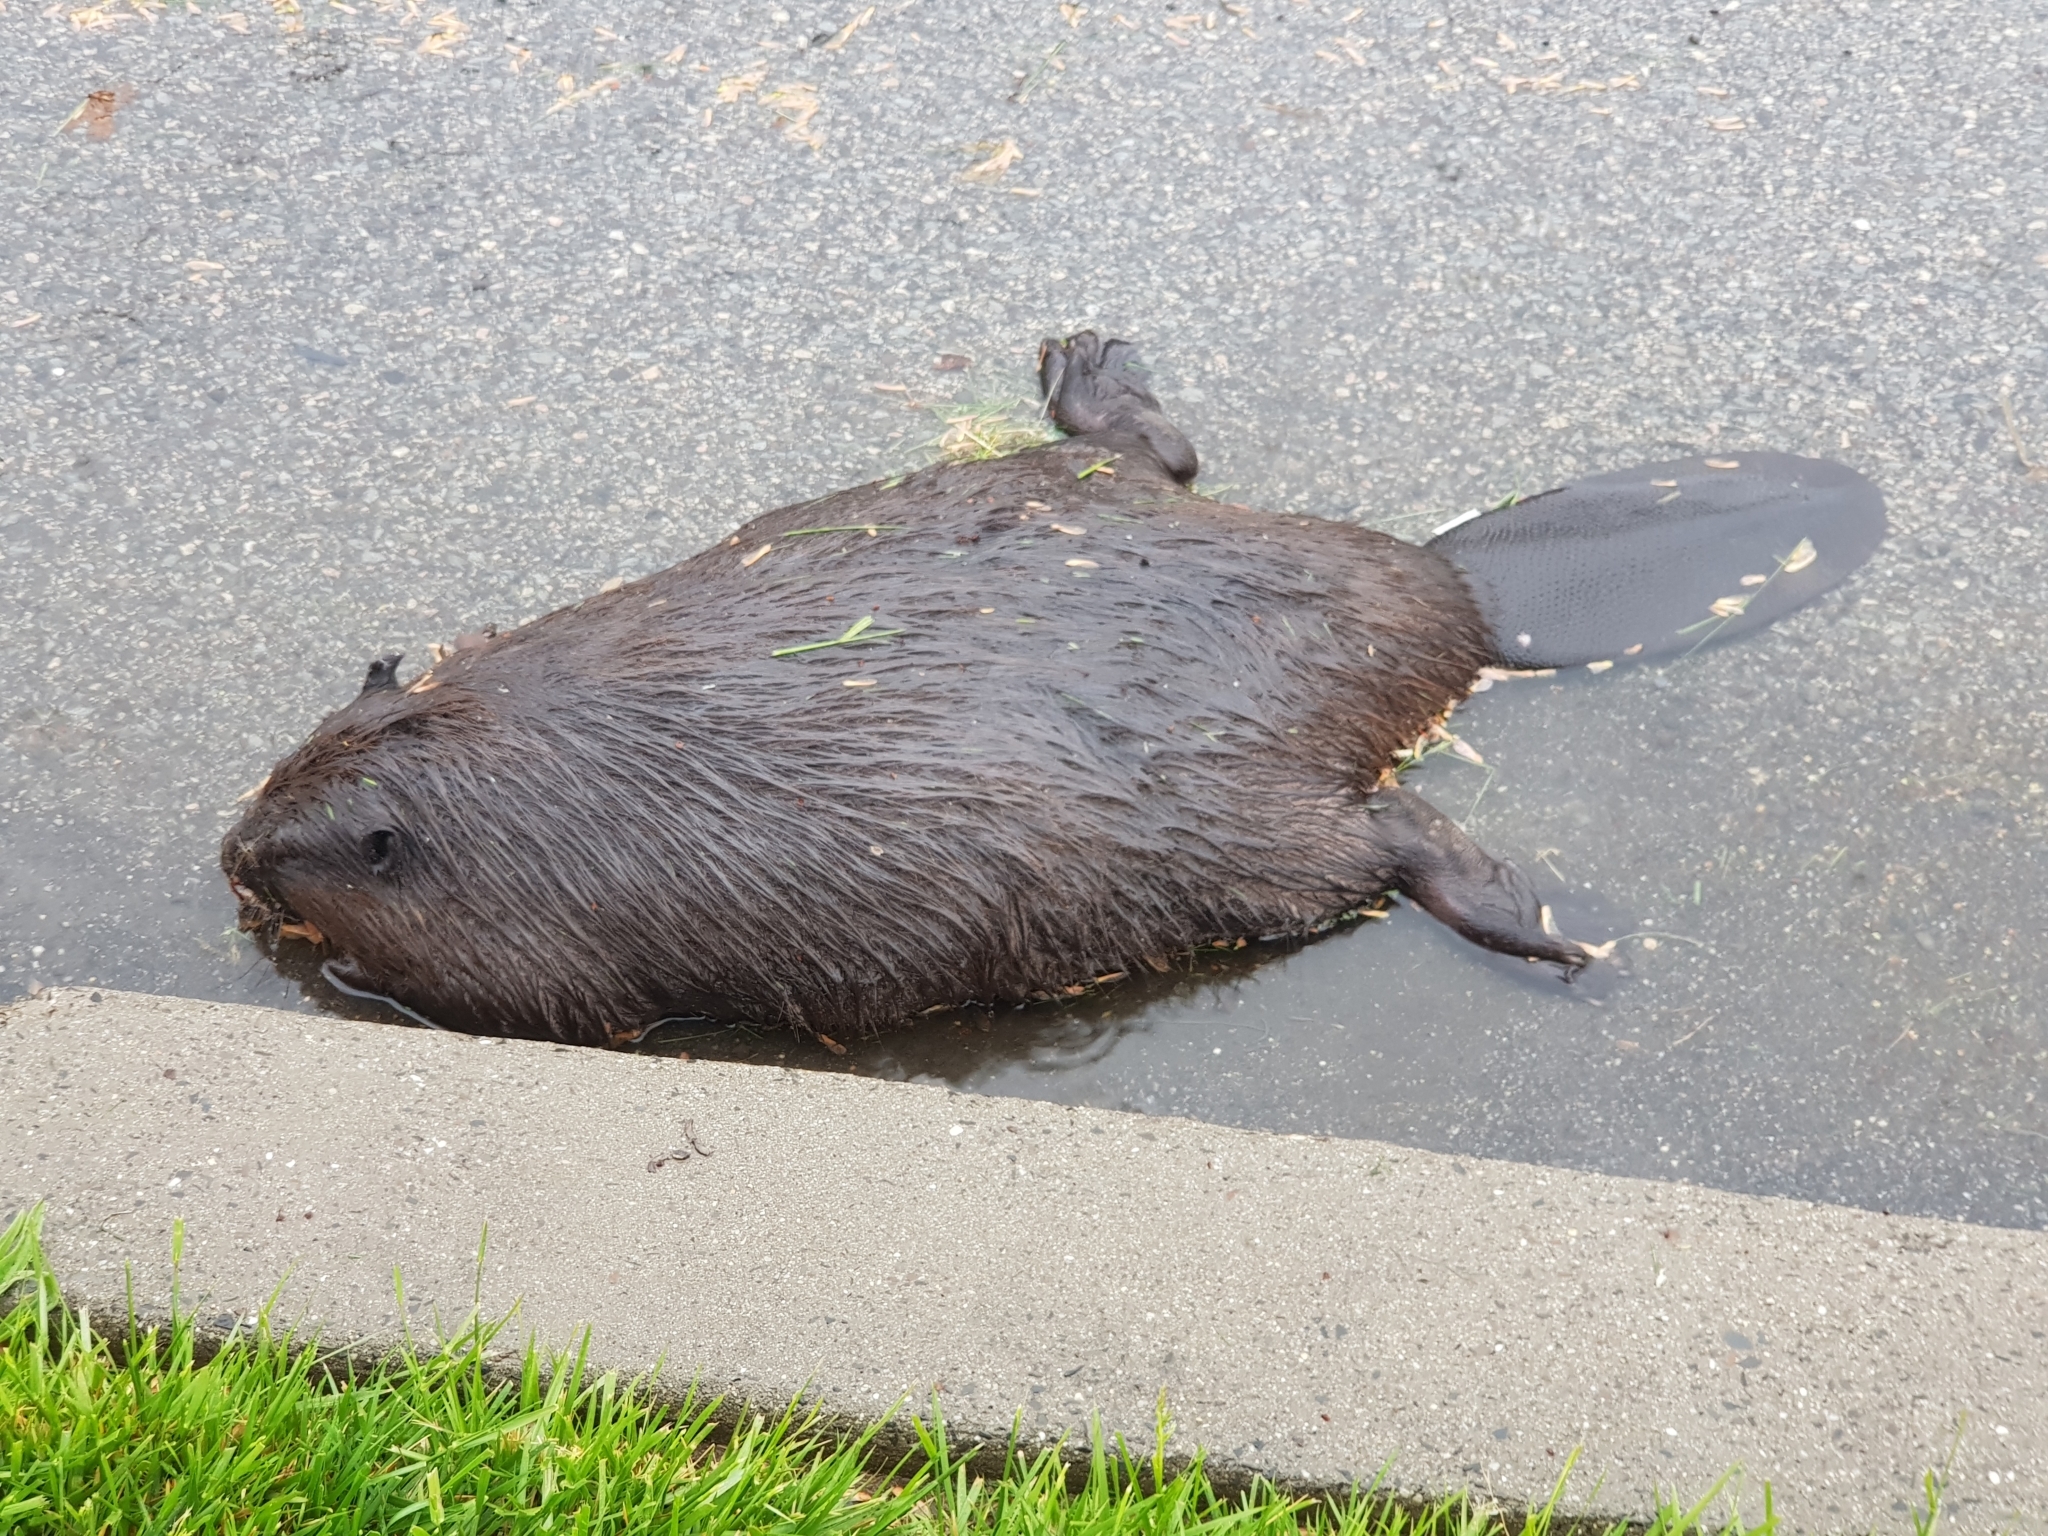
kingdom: Animalia
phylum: Chordata
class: Mammalia
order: Rodentia
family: Castoridae
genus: Castor
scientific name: Castor canadensis
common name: American beaver
